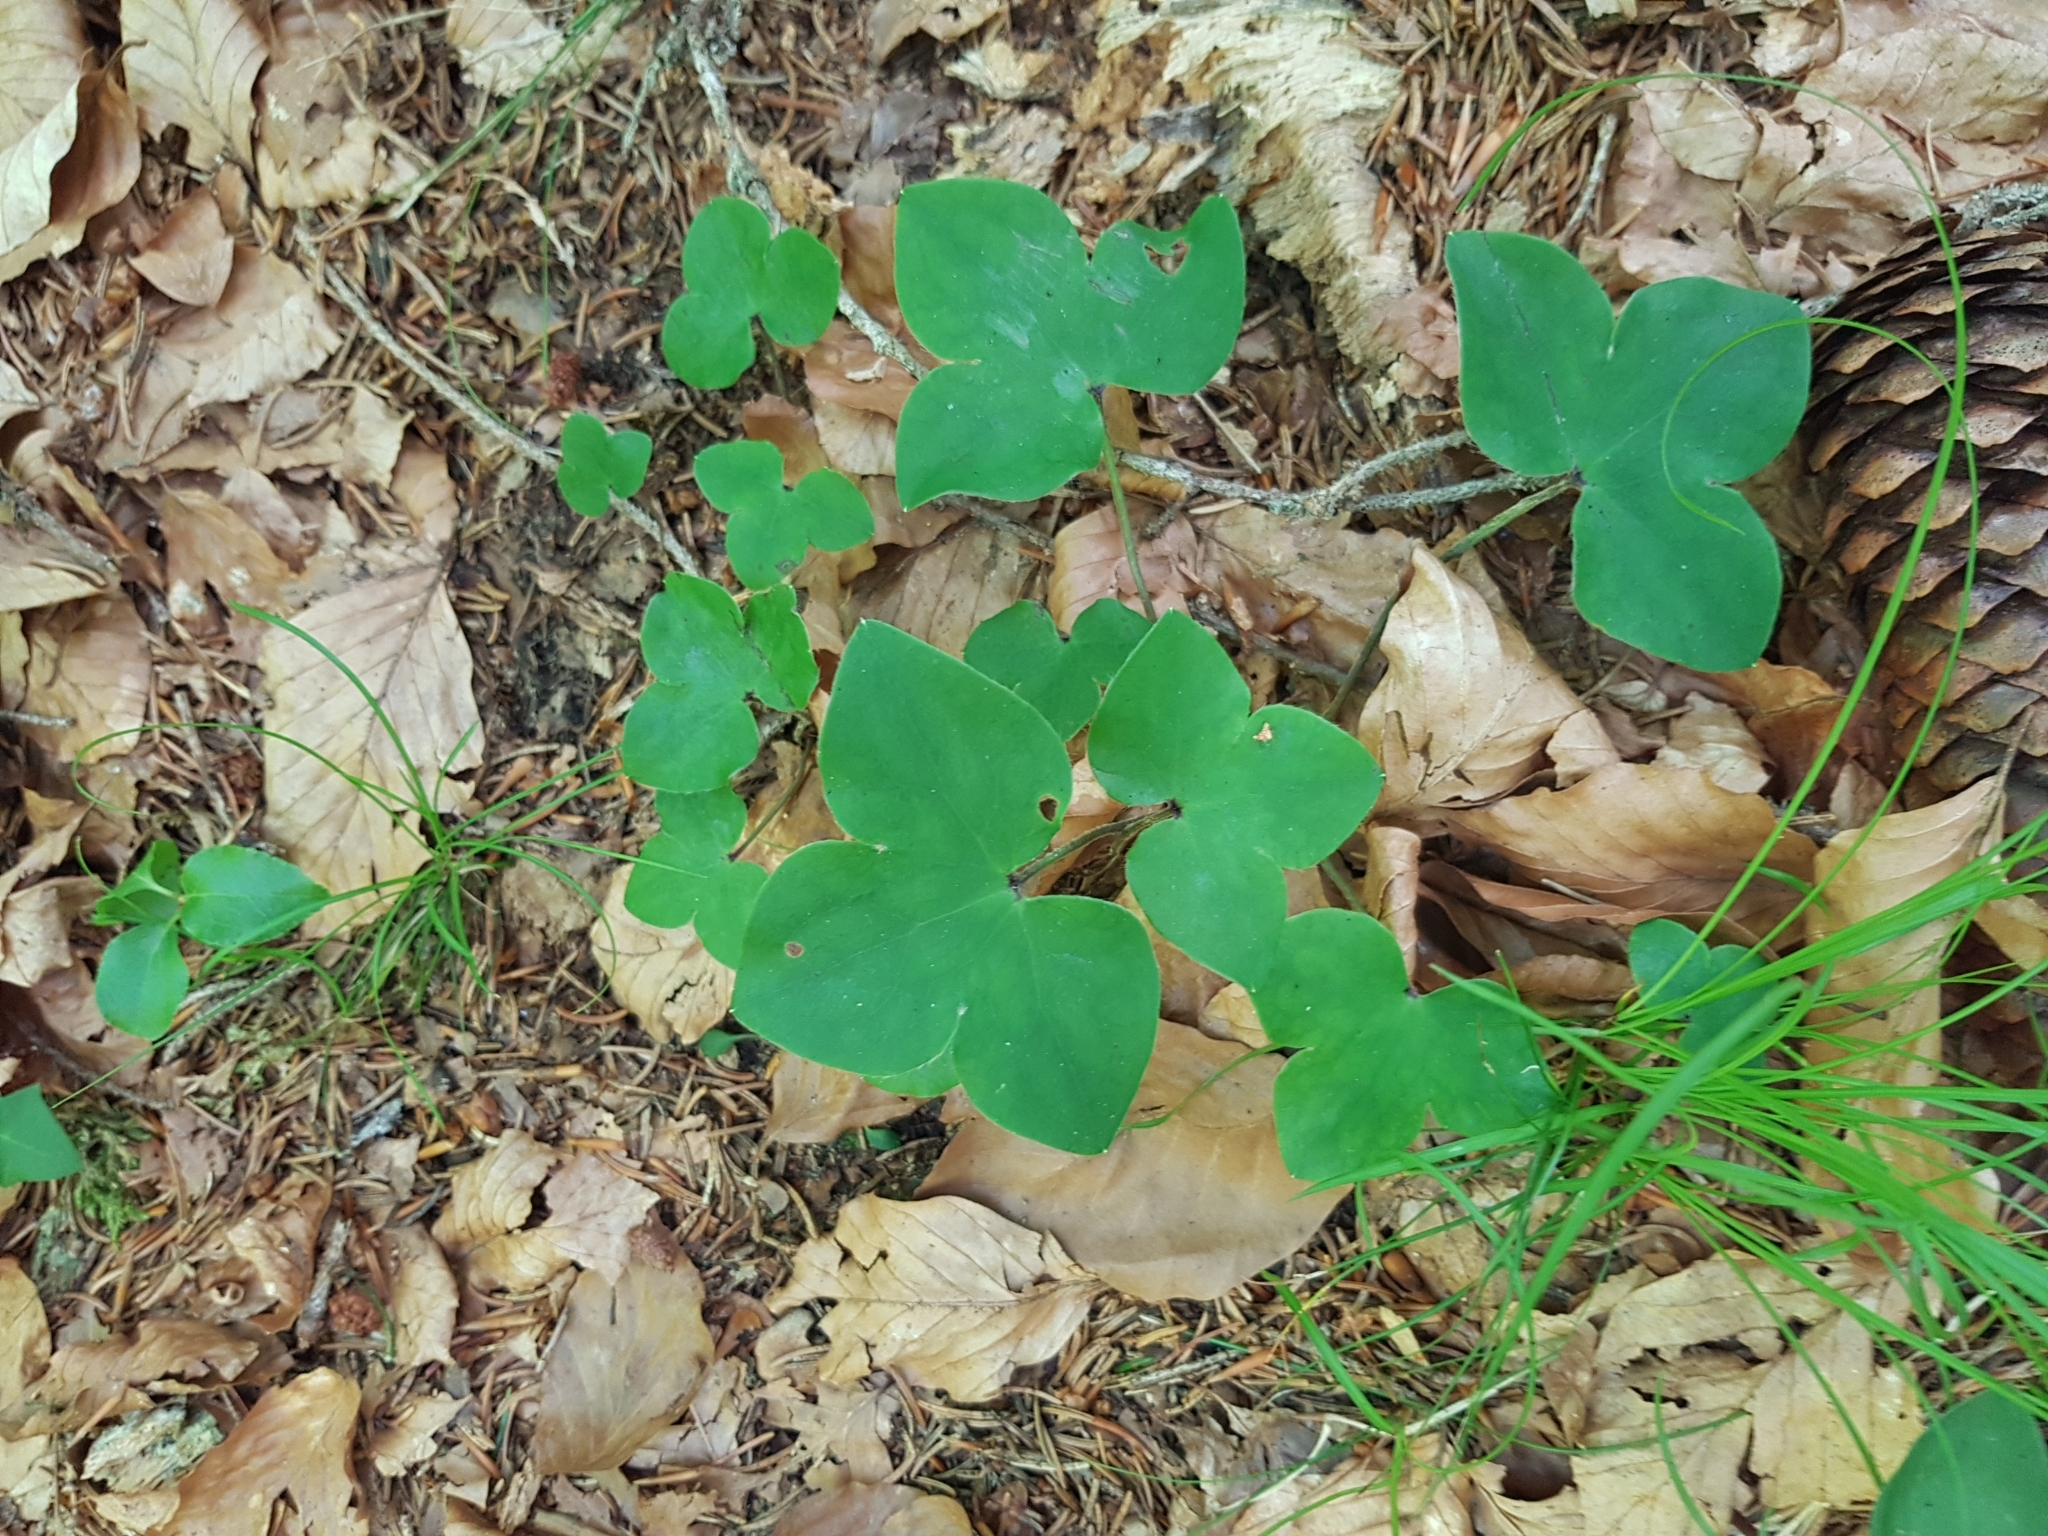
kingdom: Plantae
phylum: Tracheophyta
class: Magnoliopsida
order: Ranunculales
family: Ranunculaceae
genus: Hepatica
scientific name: Hepatica nobilis
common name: Liverleaf
